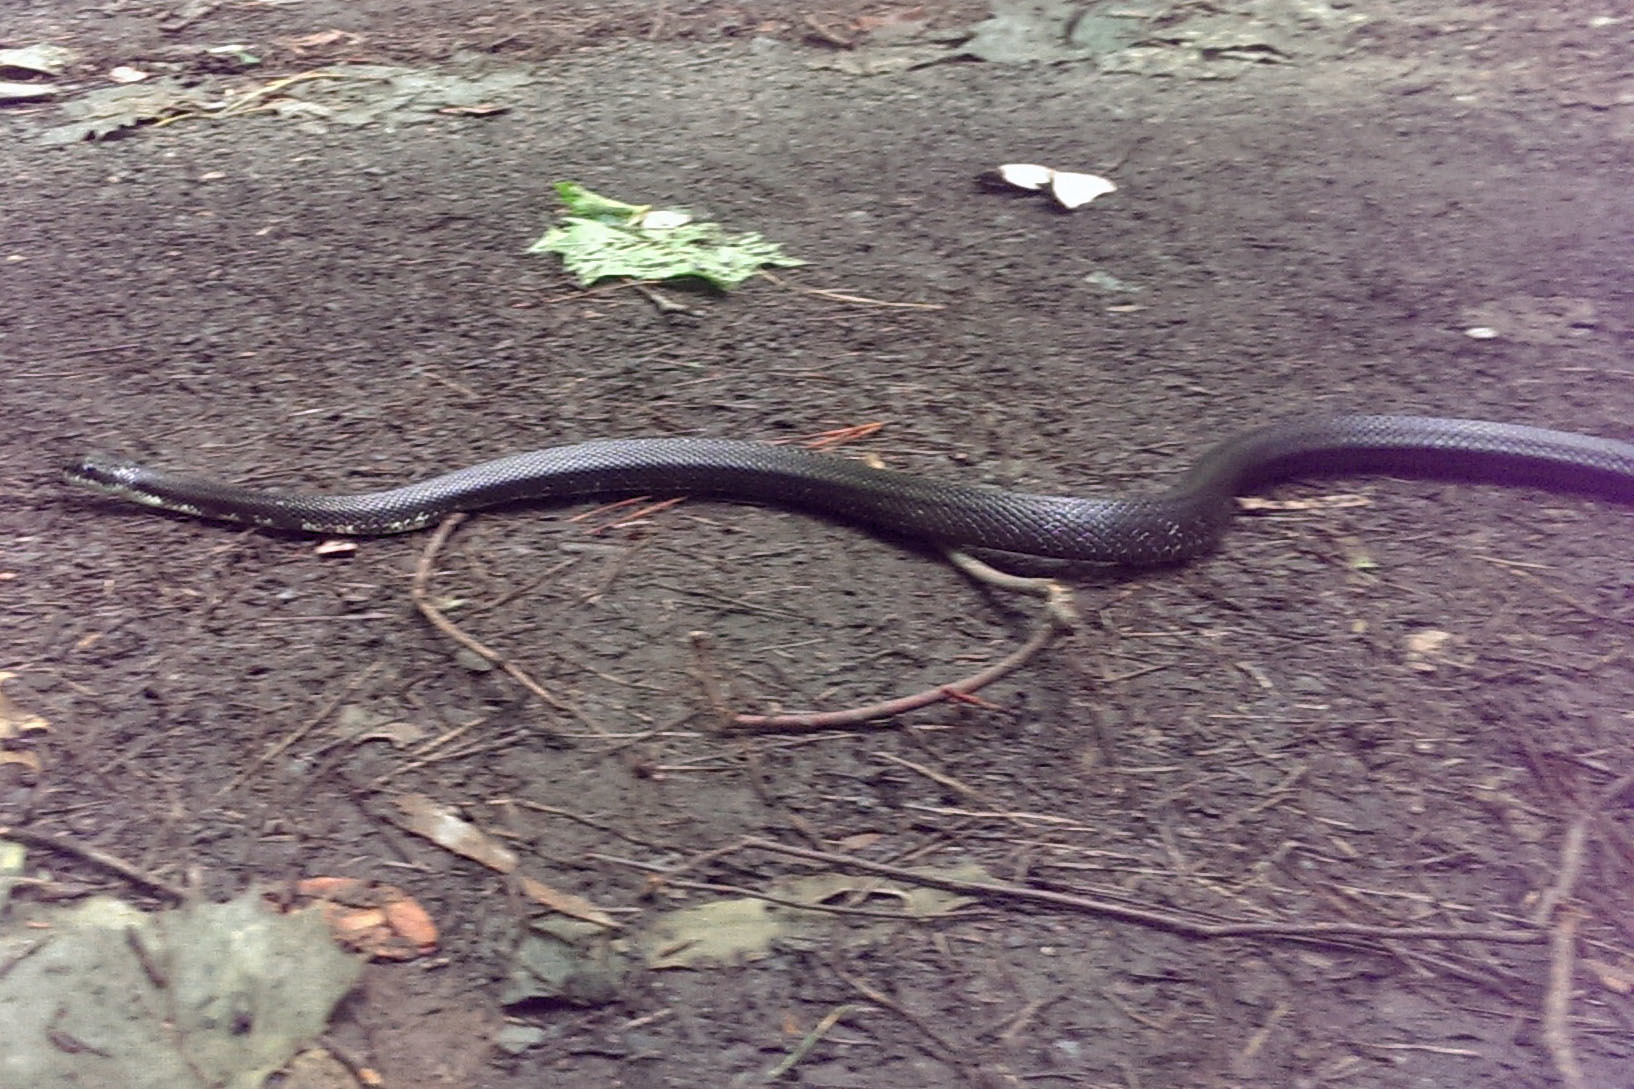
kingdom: Animalia
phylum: Chordata
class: Squamata
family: Colubridae
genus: Pantherophis
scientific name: Pantherophis alleghaniensis
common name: Eastern rat snake
